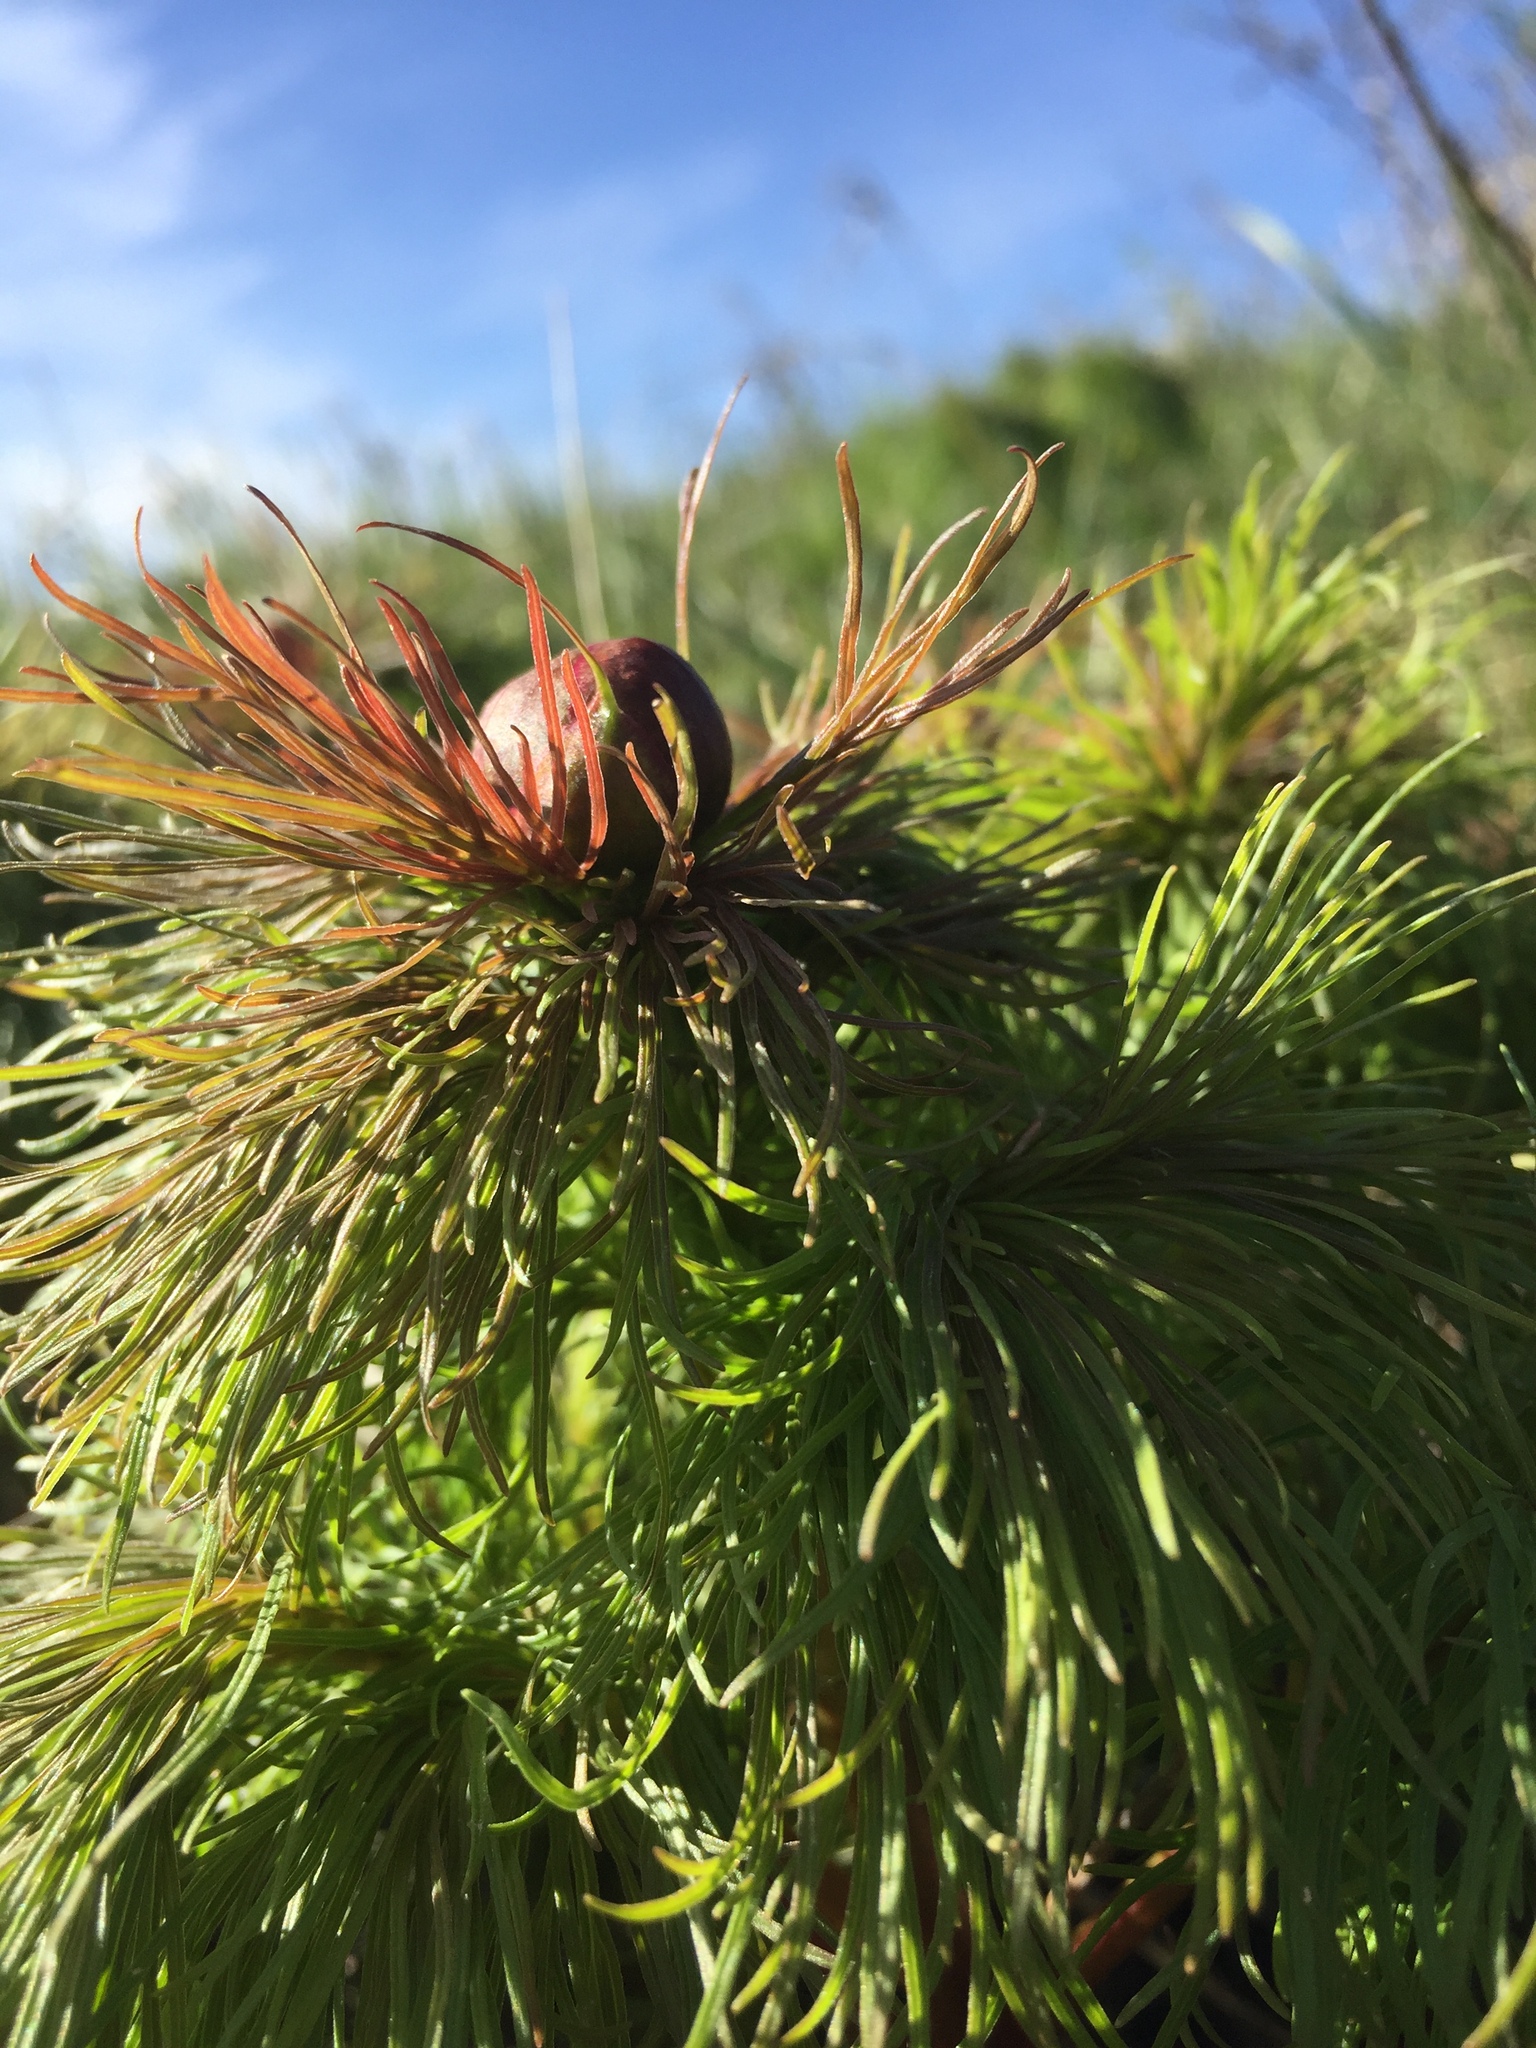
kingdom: Plantae
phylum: Tracheophyta
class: Magnoliopsida
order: Saxifragales
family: Paeoniaceae
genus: Paeonia
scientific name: Paeonia tenuifolia
